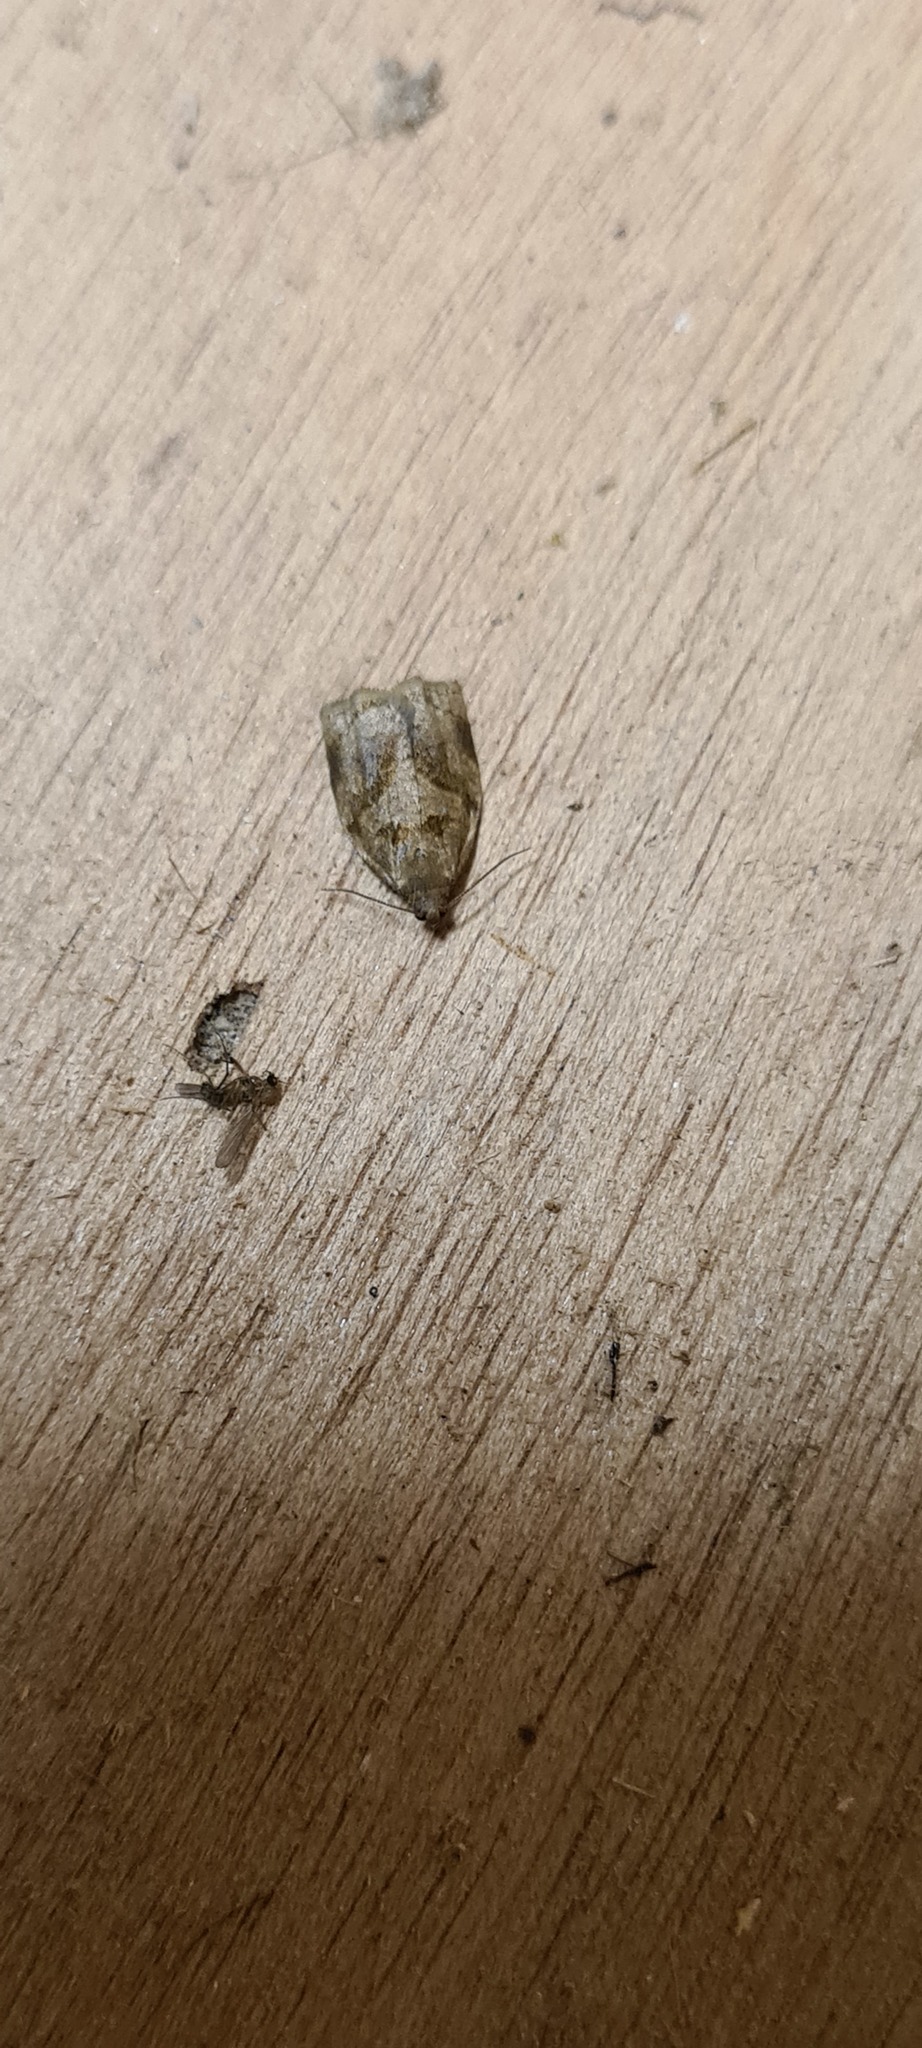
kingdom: Animalia
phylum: Arthropoda
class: Insecta
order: Lepidoptera
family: Tortricidae
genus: Archips
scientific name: Archips rosana
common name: Rose tortrix
